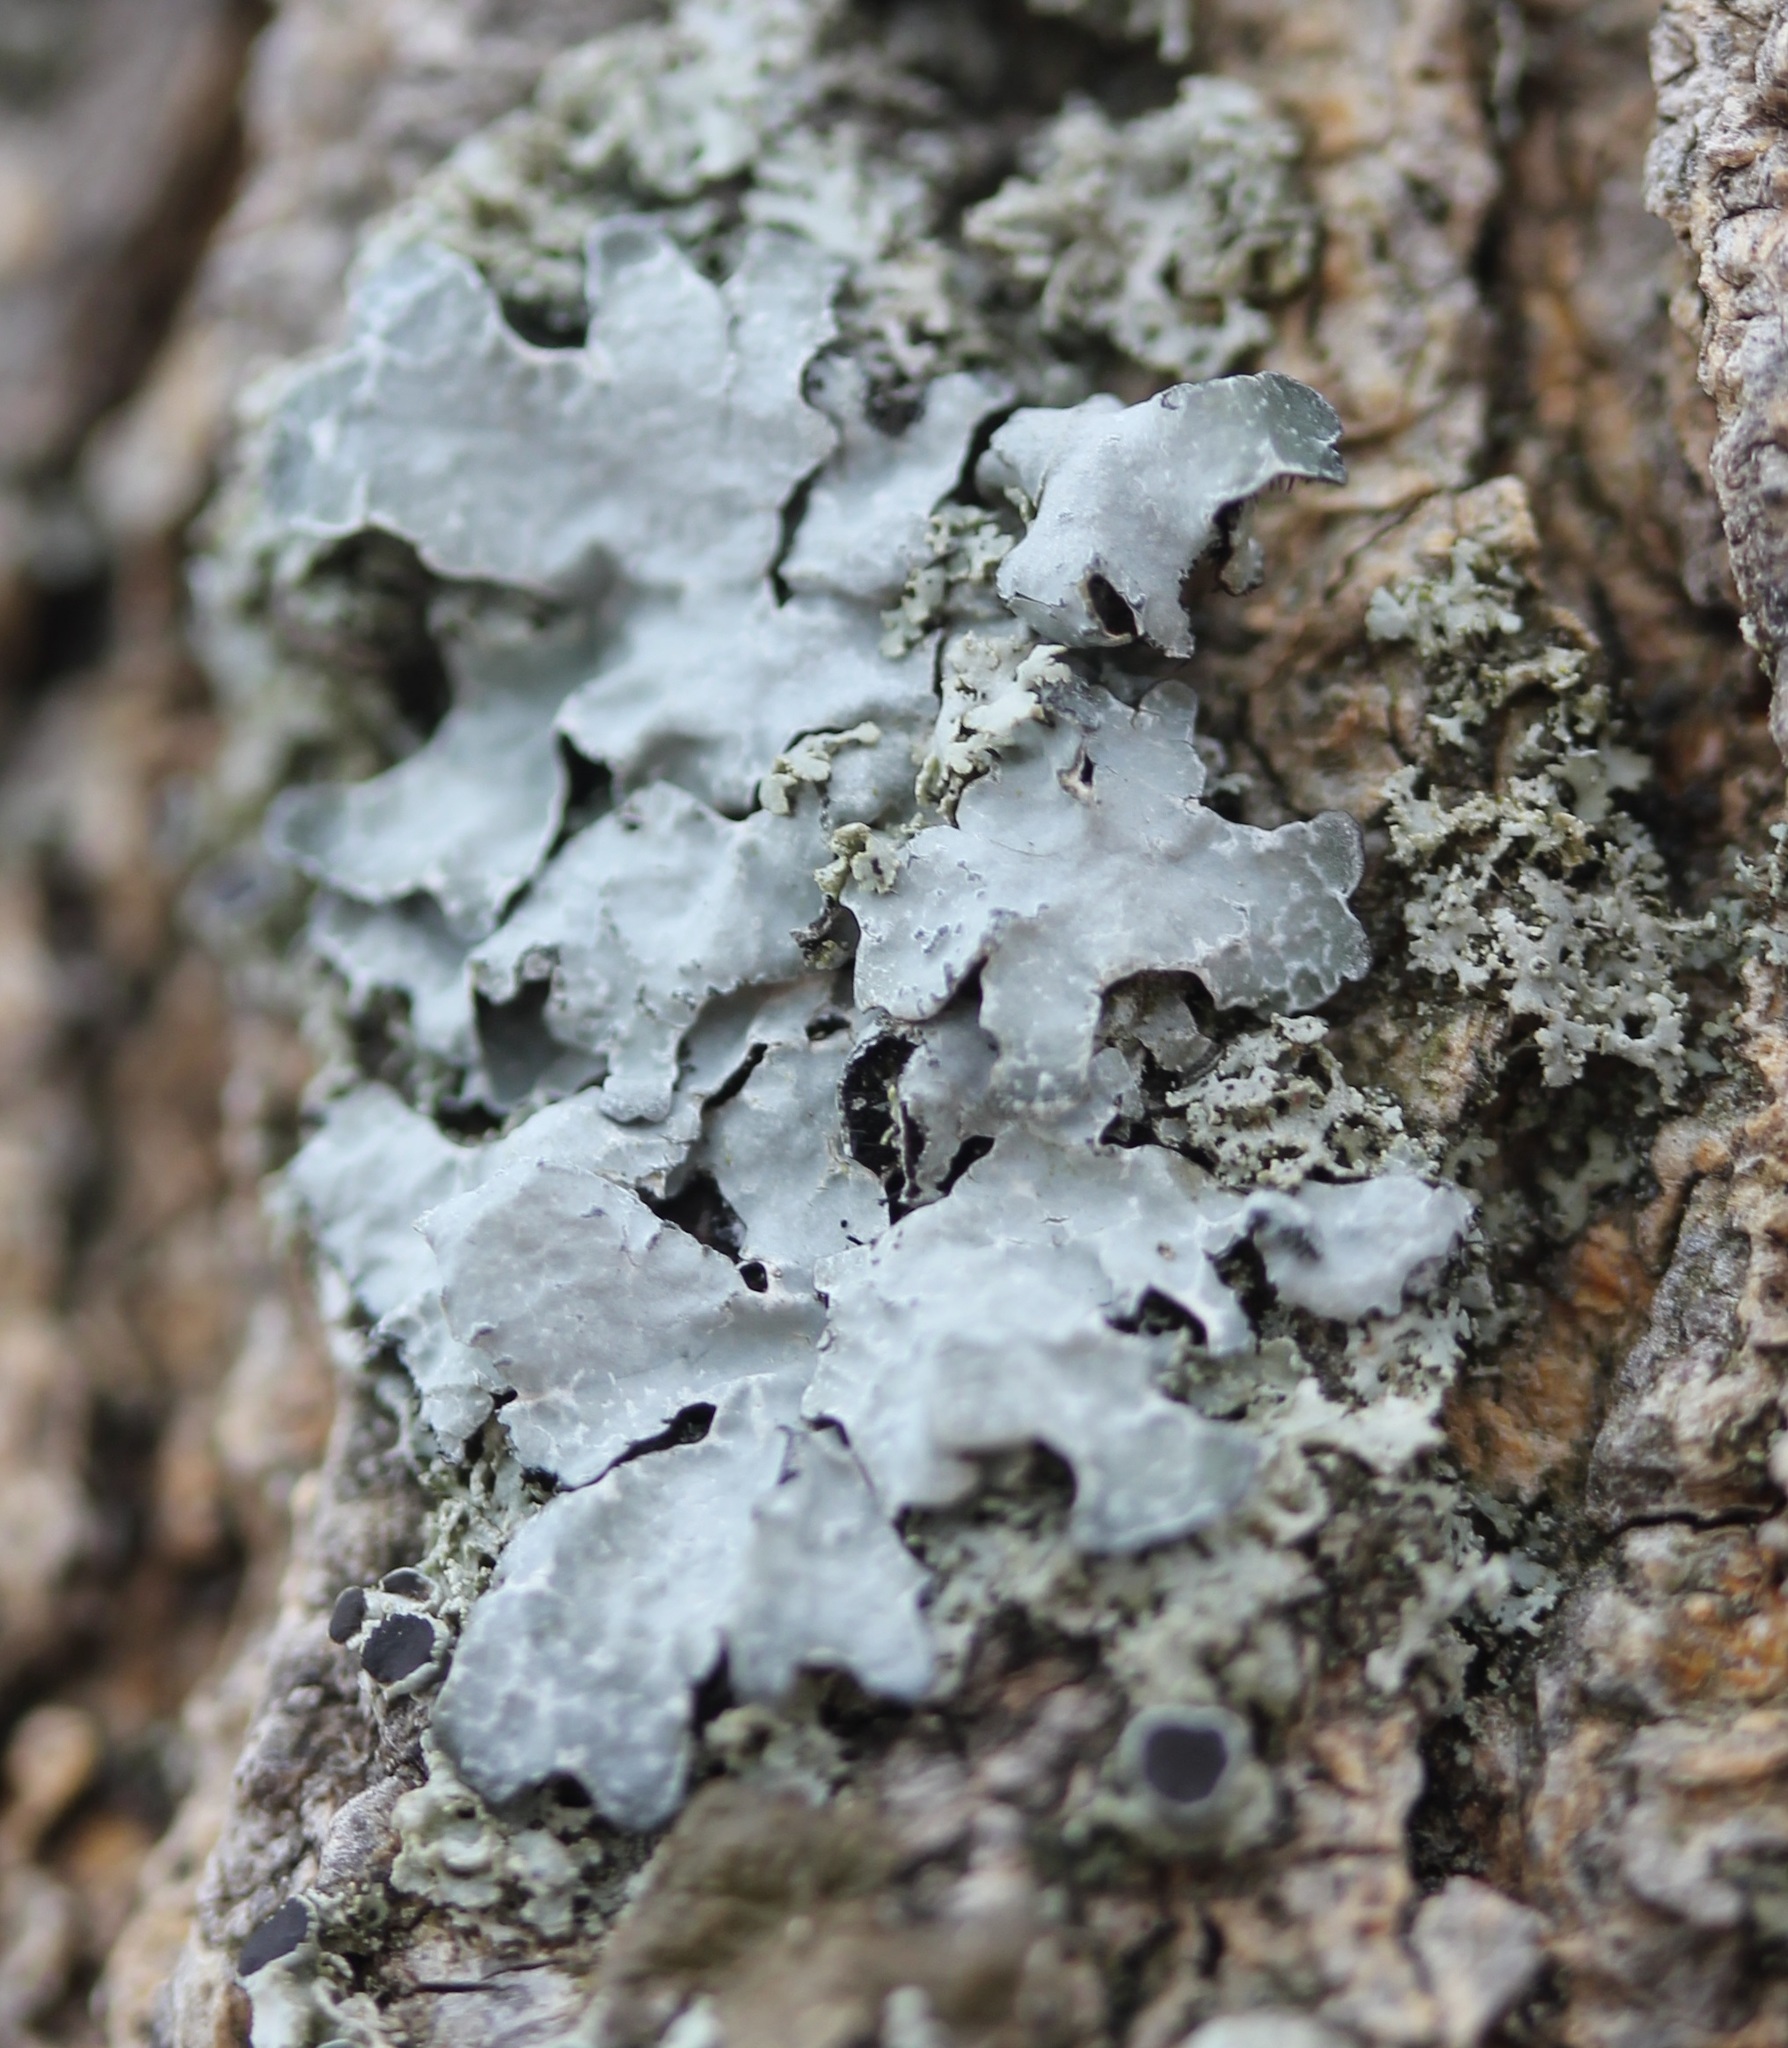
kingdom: Fungi
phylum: Ascomycota
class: Lecanoromycetes
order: Lecanorales
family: Parmeliaceae
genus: Parmelia
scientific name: Parmelia sulcata
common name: Netted shield lichen
